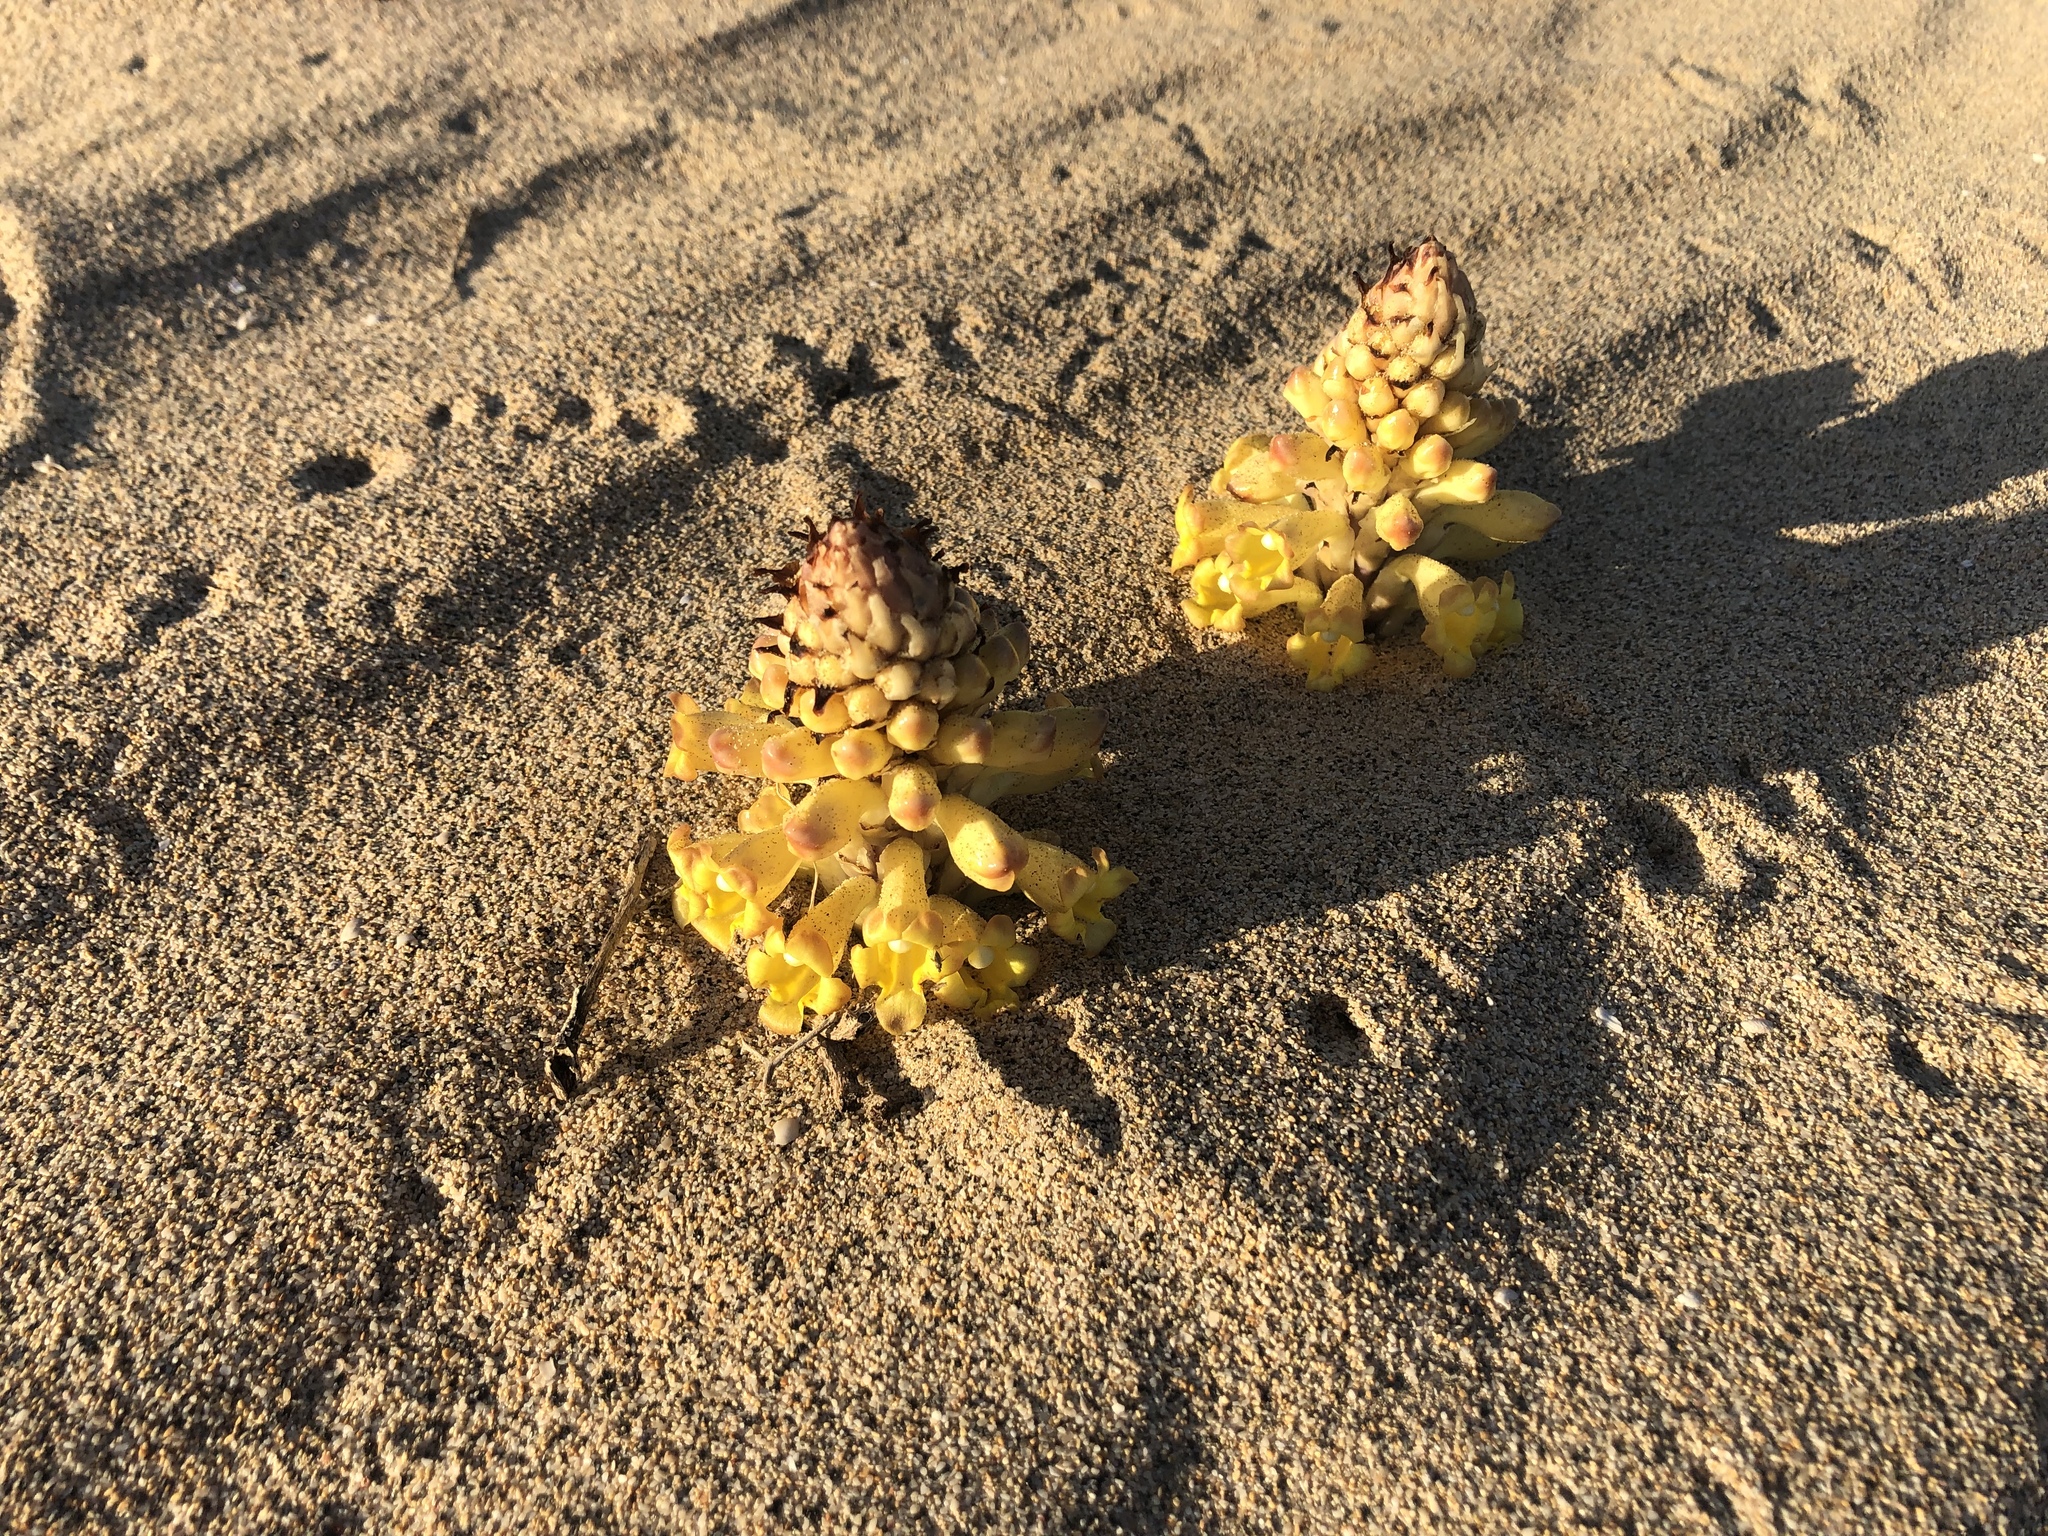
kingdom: Plantae
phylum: Tracheophyta
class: Magnoliopsida
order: Lamiales
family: Orobanchaceae
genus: Cistanche
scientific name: Cistanche phelypaea
